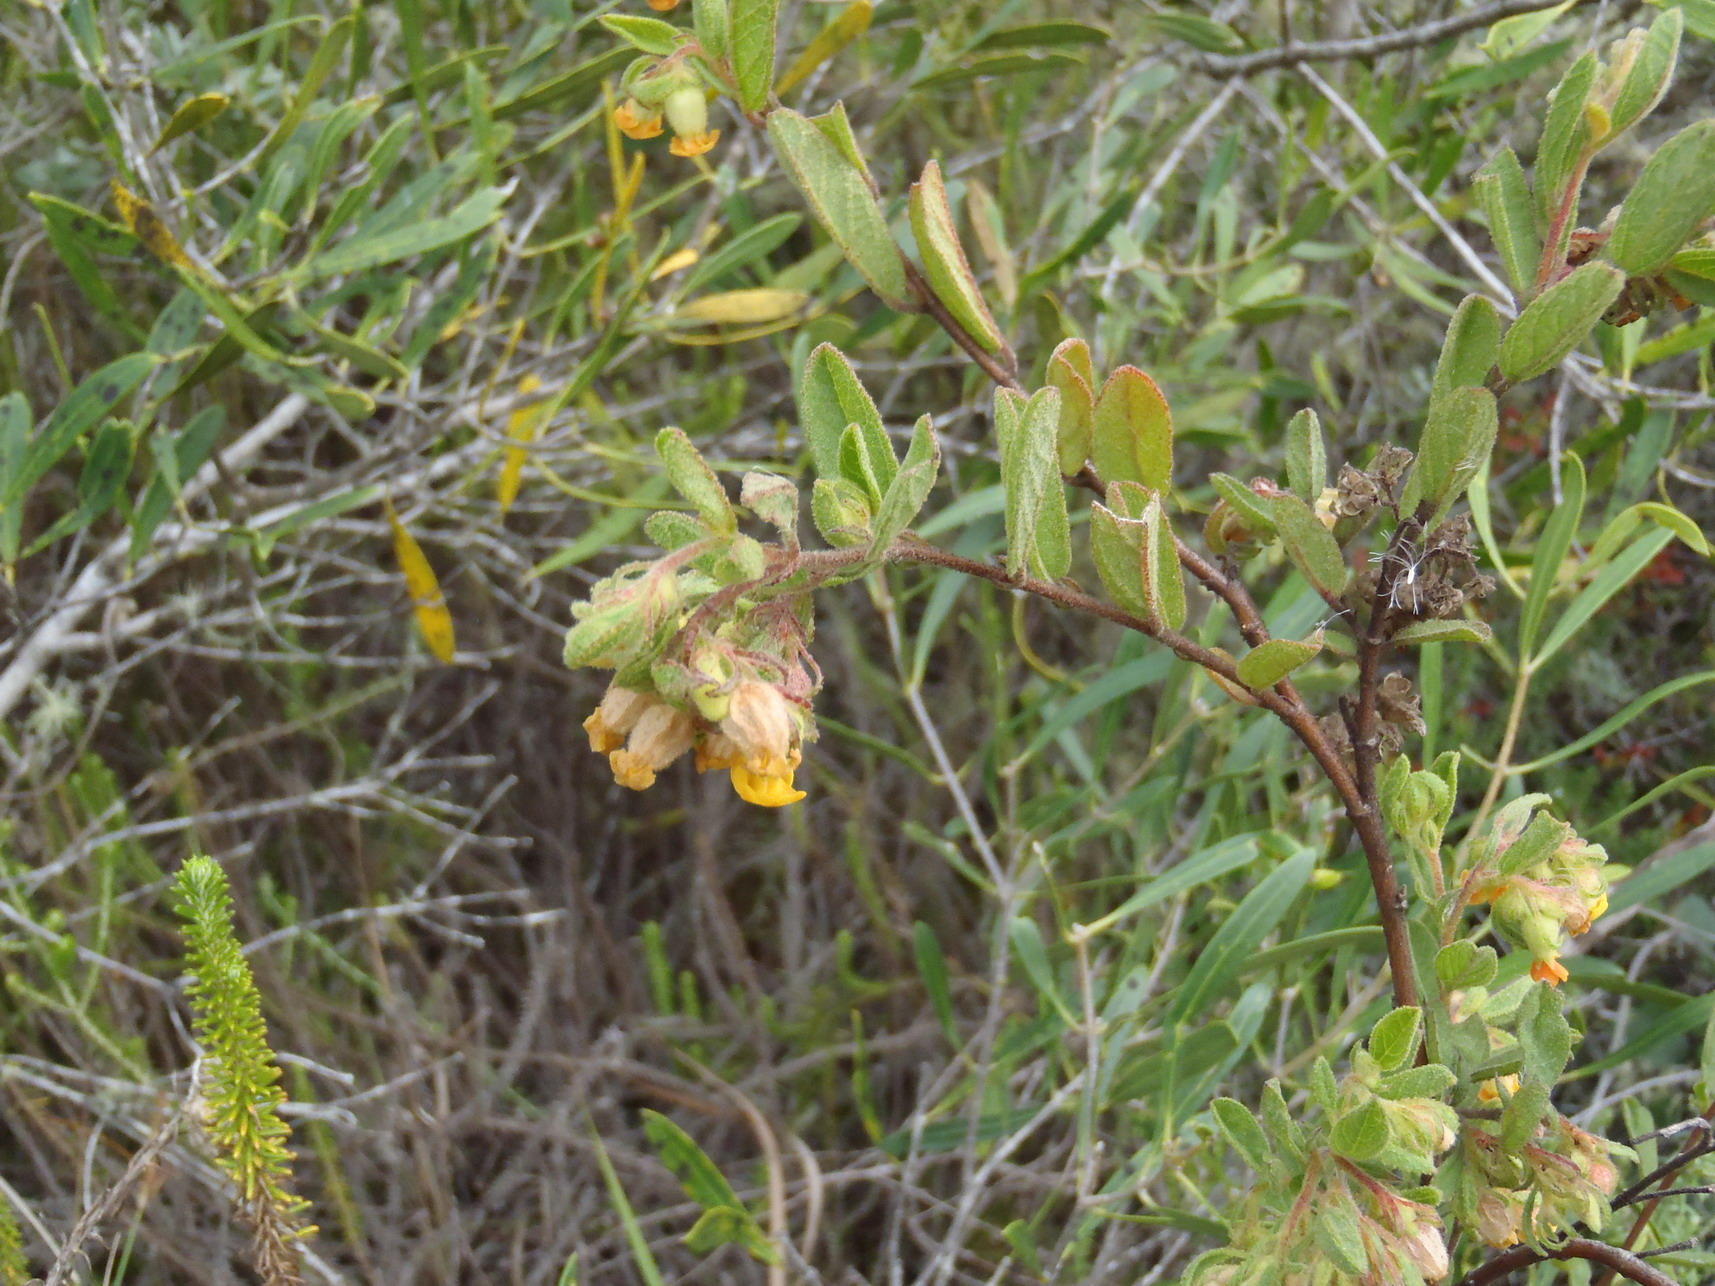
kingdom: Plantae
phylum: Tracheophyta
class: Magnoliopsida
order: Malvales
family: Malvaceae
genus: Hermannia
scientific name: Hermannia salviifolia
